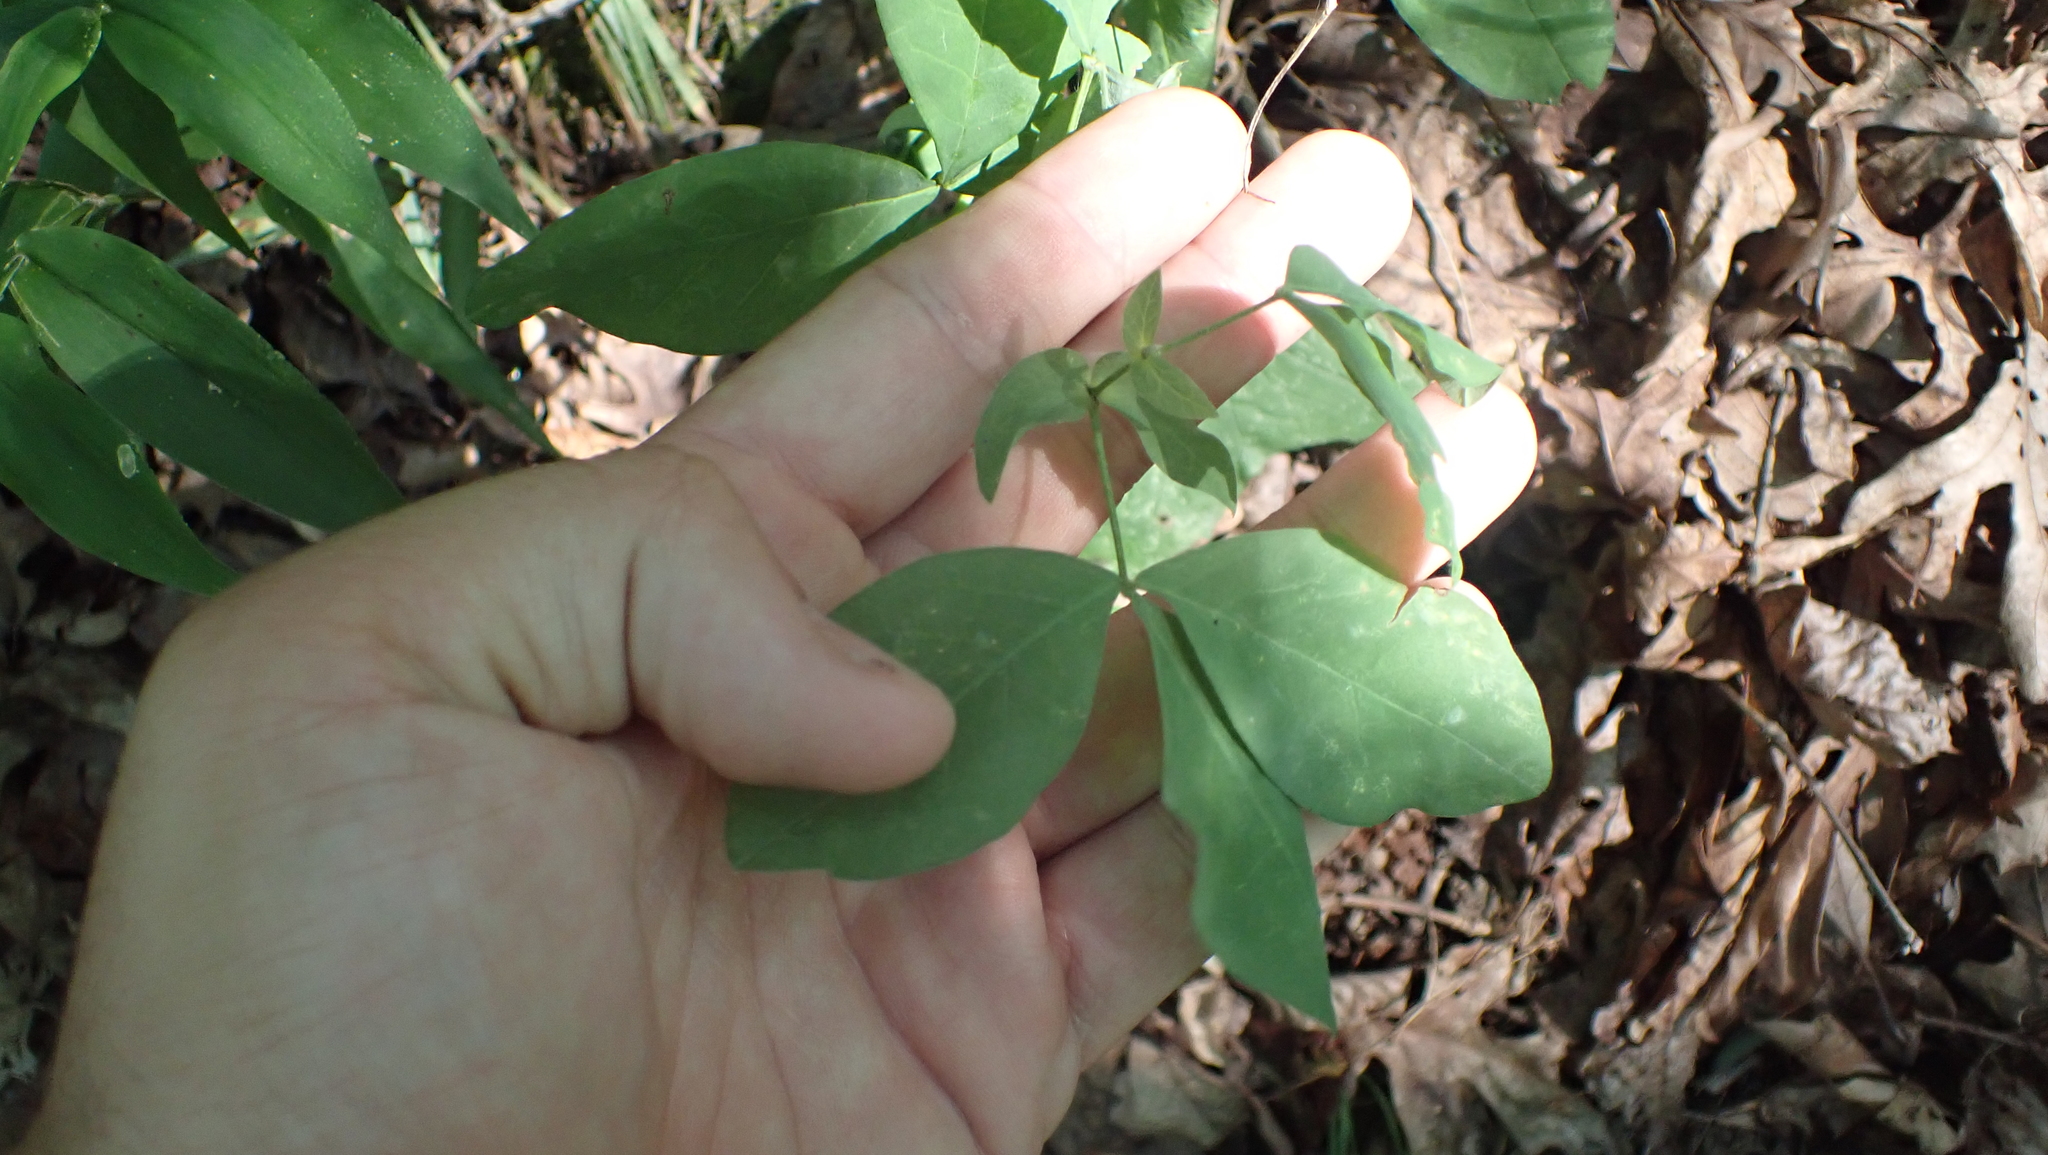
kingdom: Plantae
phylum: Tracheophyta
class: Magnoliopsida
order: Fabales
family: Fabaceae
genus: Thermopsis
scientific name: Thermopsis villosa
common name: Carolina-lupin
